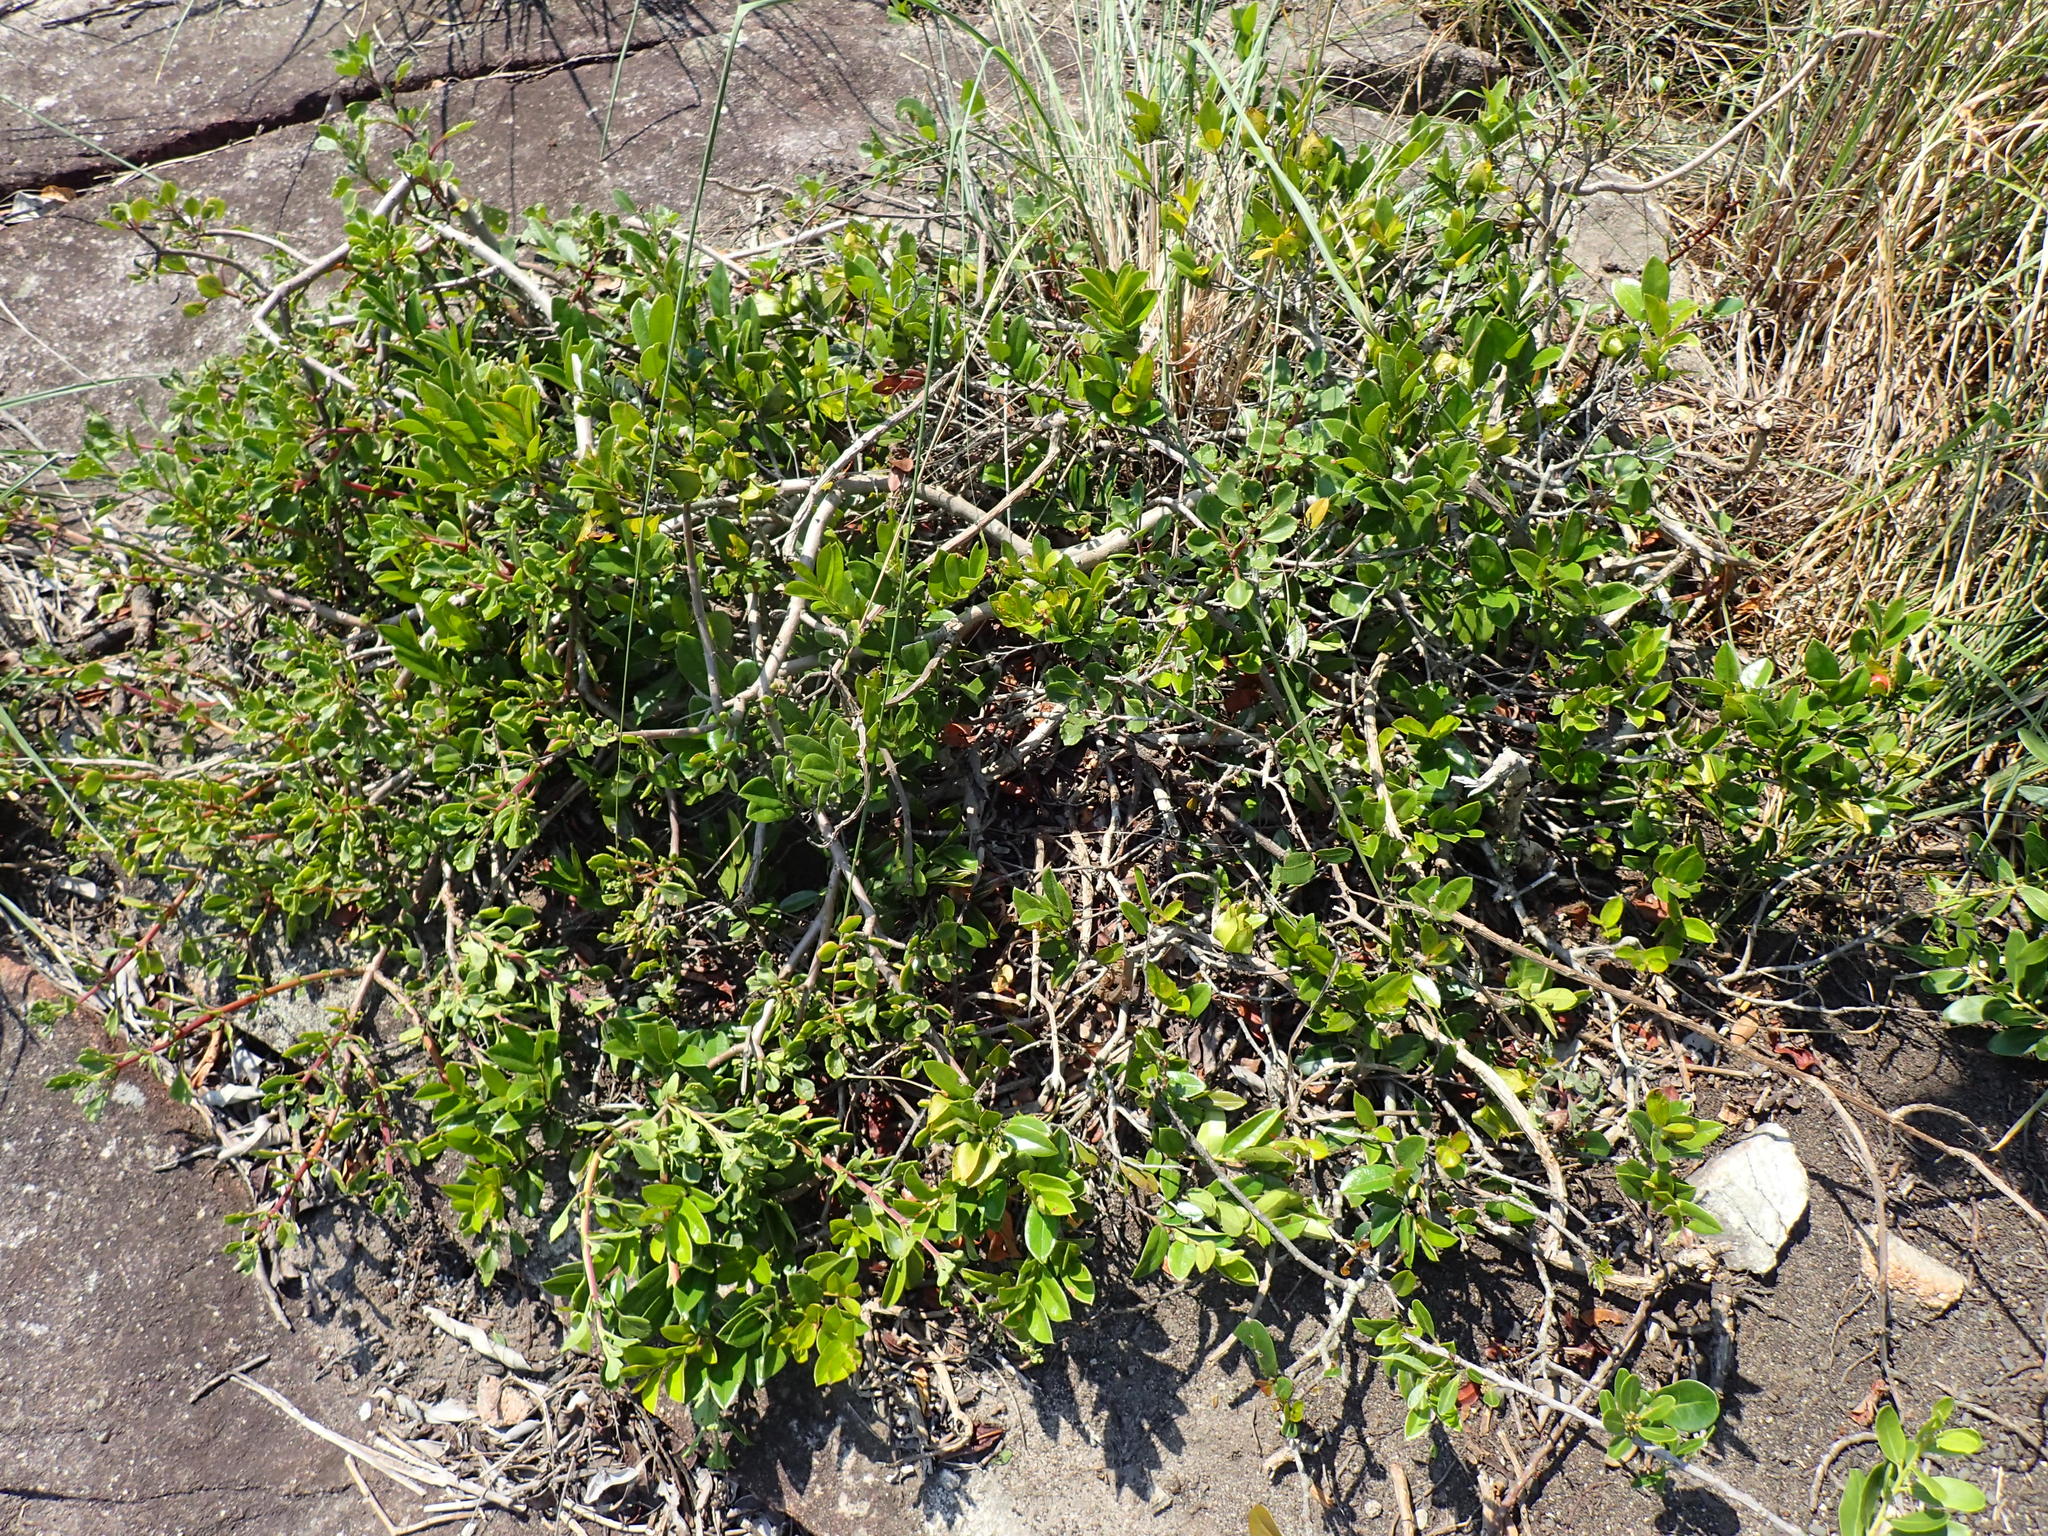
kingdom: Plantae
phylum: Tracheophyta
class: Magnoliopsida
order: Ericales
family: Ebenaceae
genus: Diospyros
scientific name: Diospyros scabrida
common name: Coastal bladder-nut
